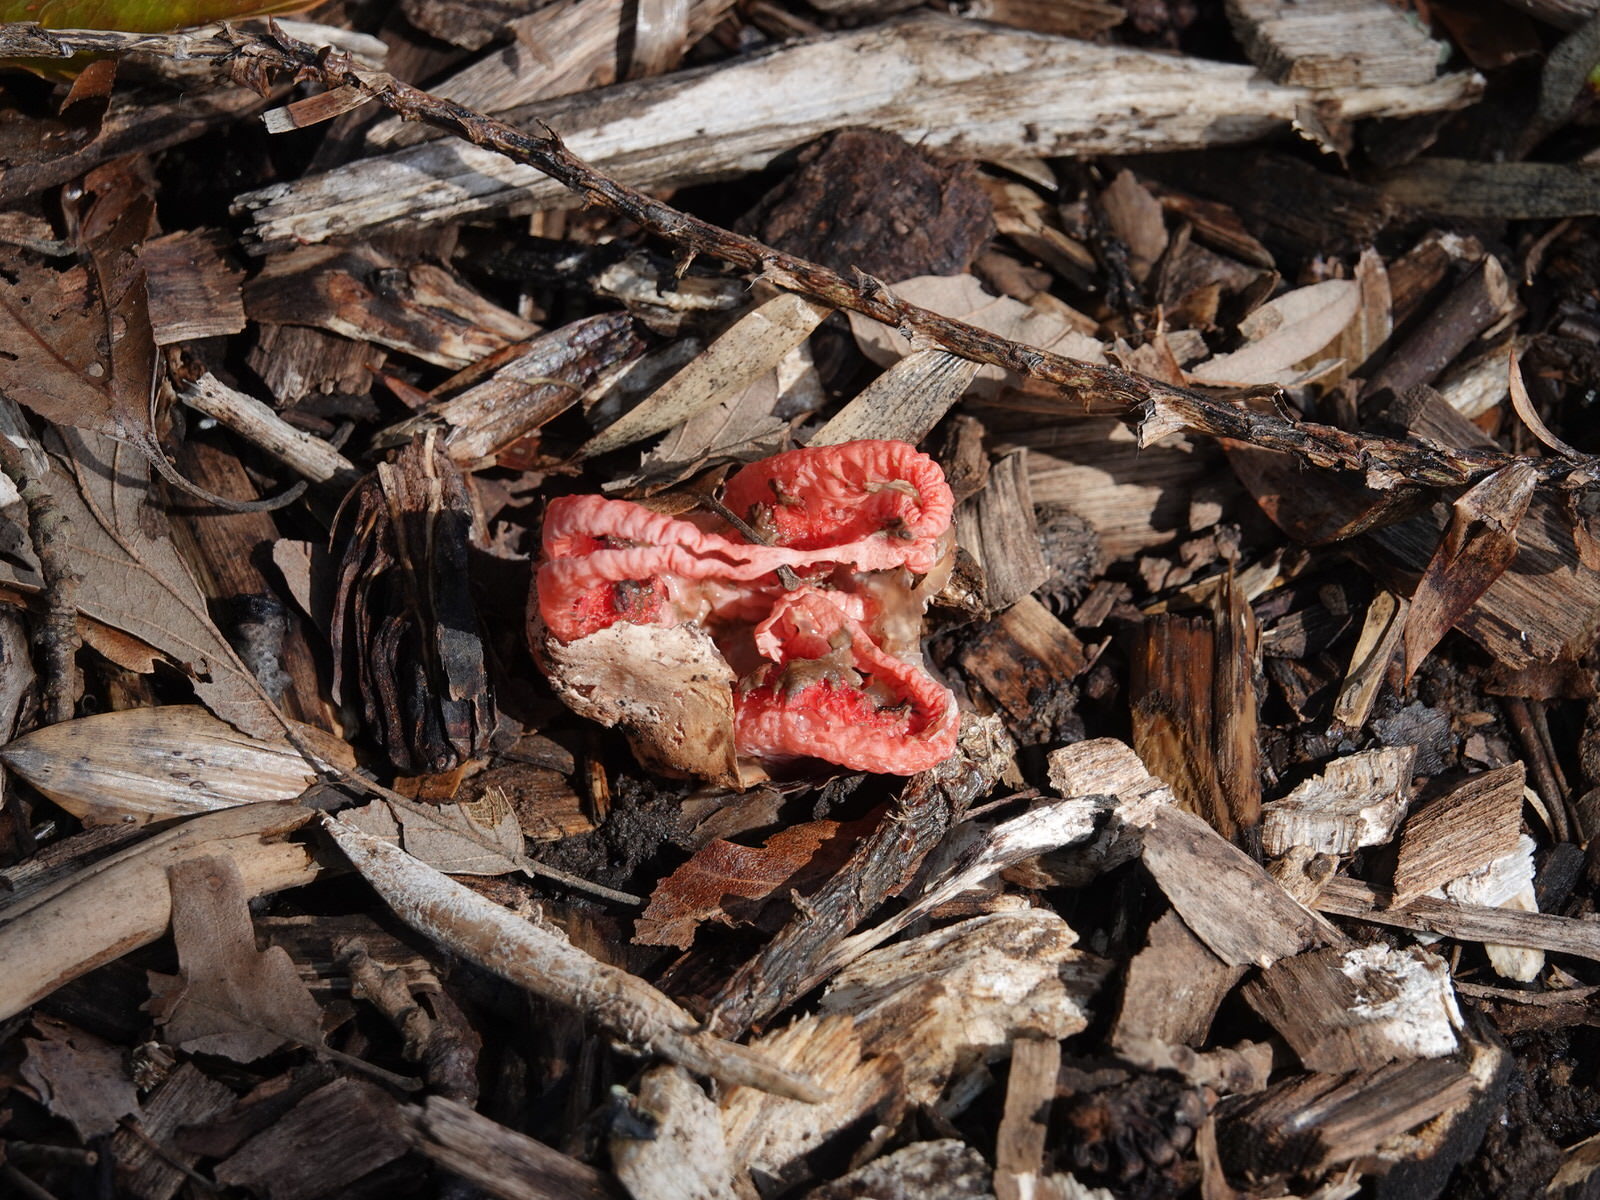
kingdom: Fungi
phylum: Basidiomycota
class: Agaricomycetes
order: Phallales
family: Phallaceae
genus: Clathrus
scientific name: Clathrus archeri
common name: Devil's fingers
